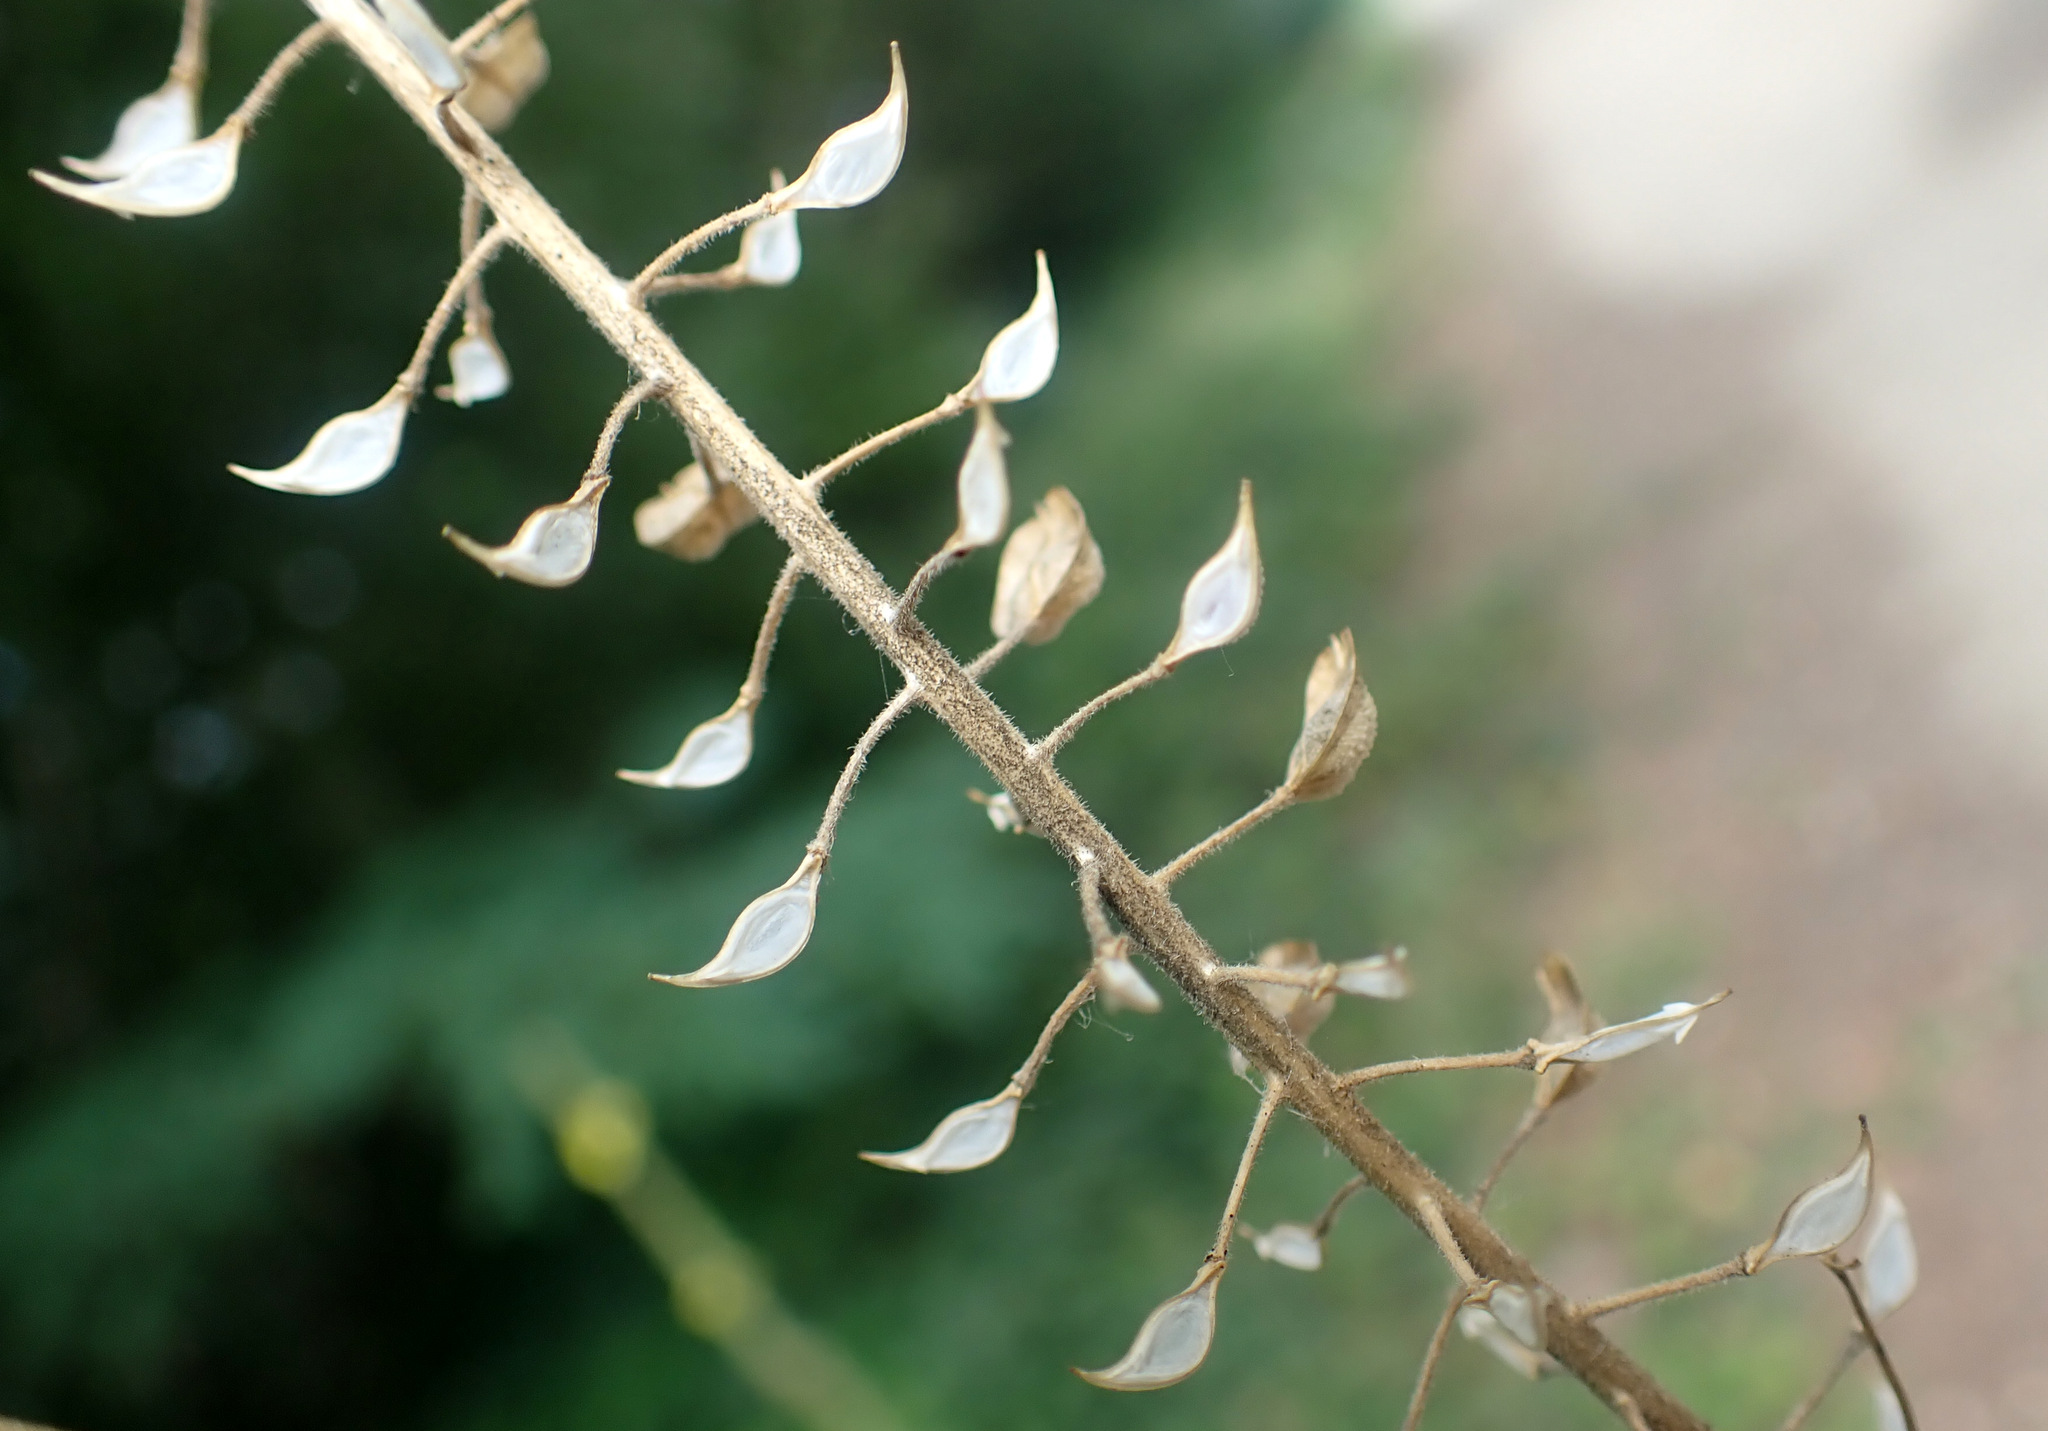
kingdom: Plantae
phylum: Tracheophyta
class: Magnoliopsida
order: Brassicales
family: Brassicaceae
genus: Lepidium
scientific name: Lepidium campestre
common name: Field pepperwort
